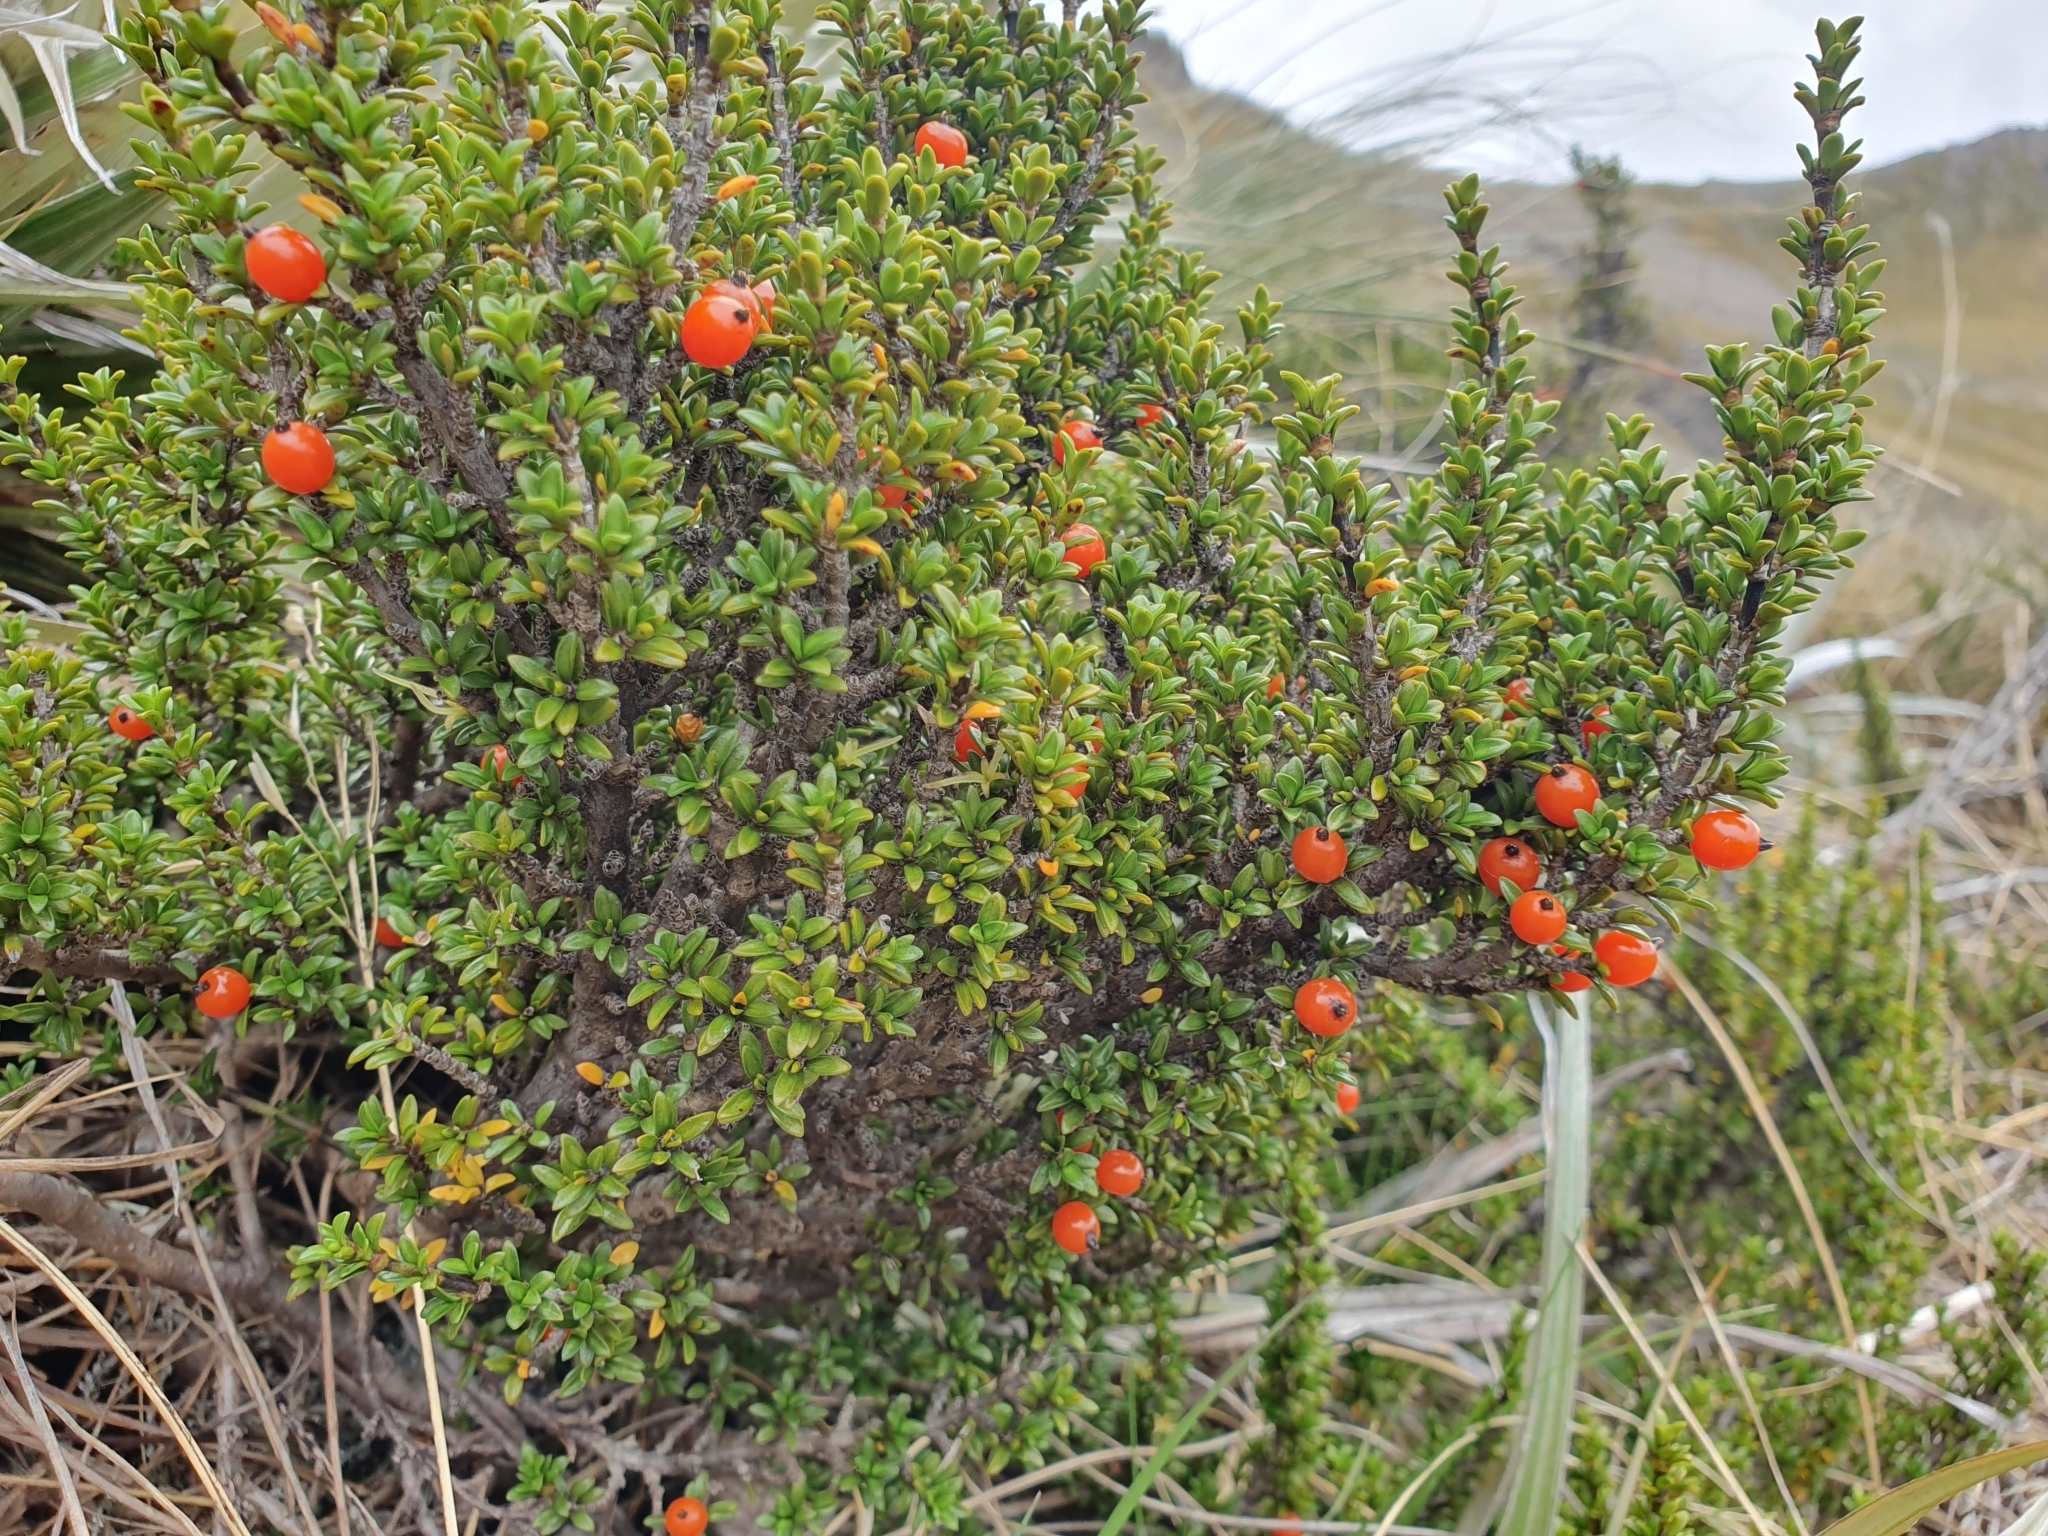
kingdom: Plantae
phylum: Tracheophyta
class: Magnoliopsida
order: Gentianales
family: Rubiaceae
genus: Coprosma
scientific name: Coprosma fowerakeri
